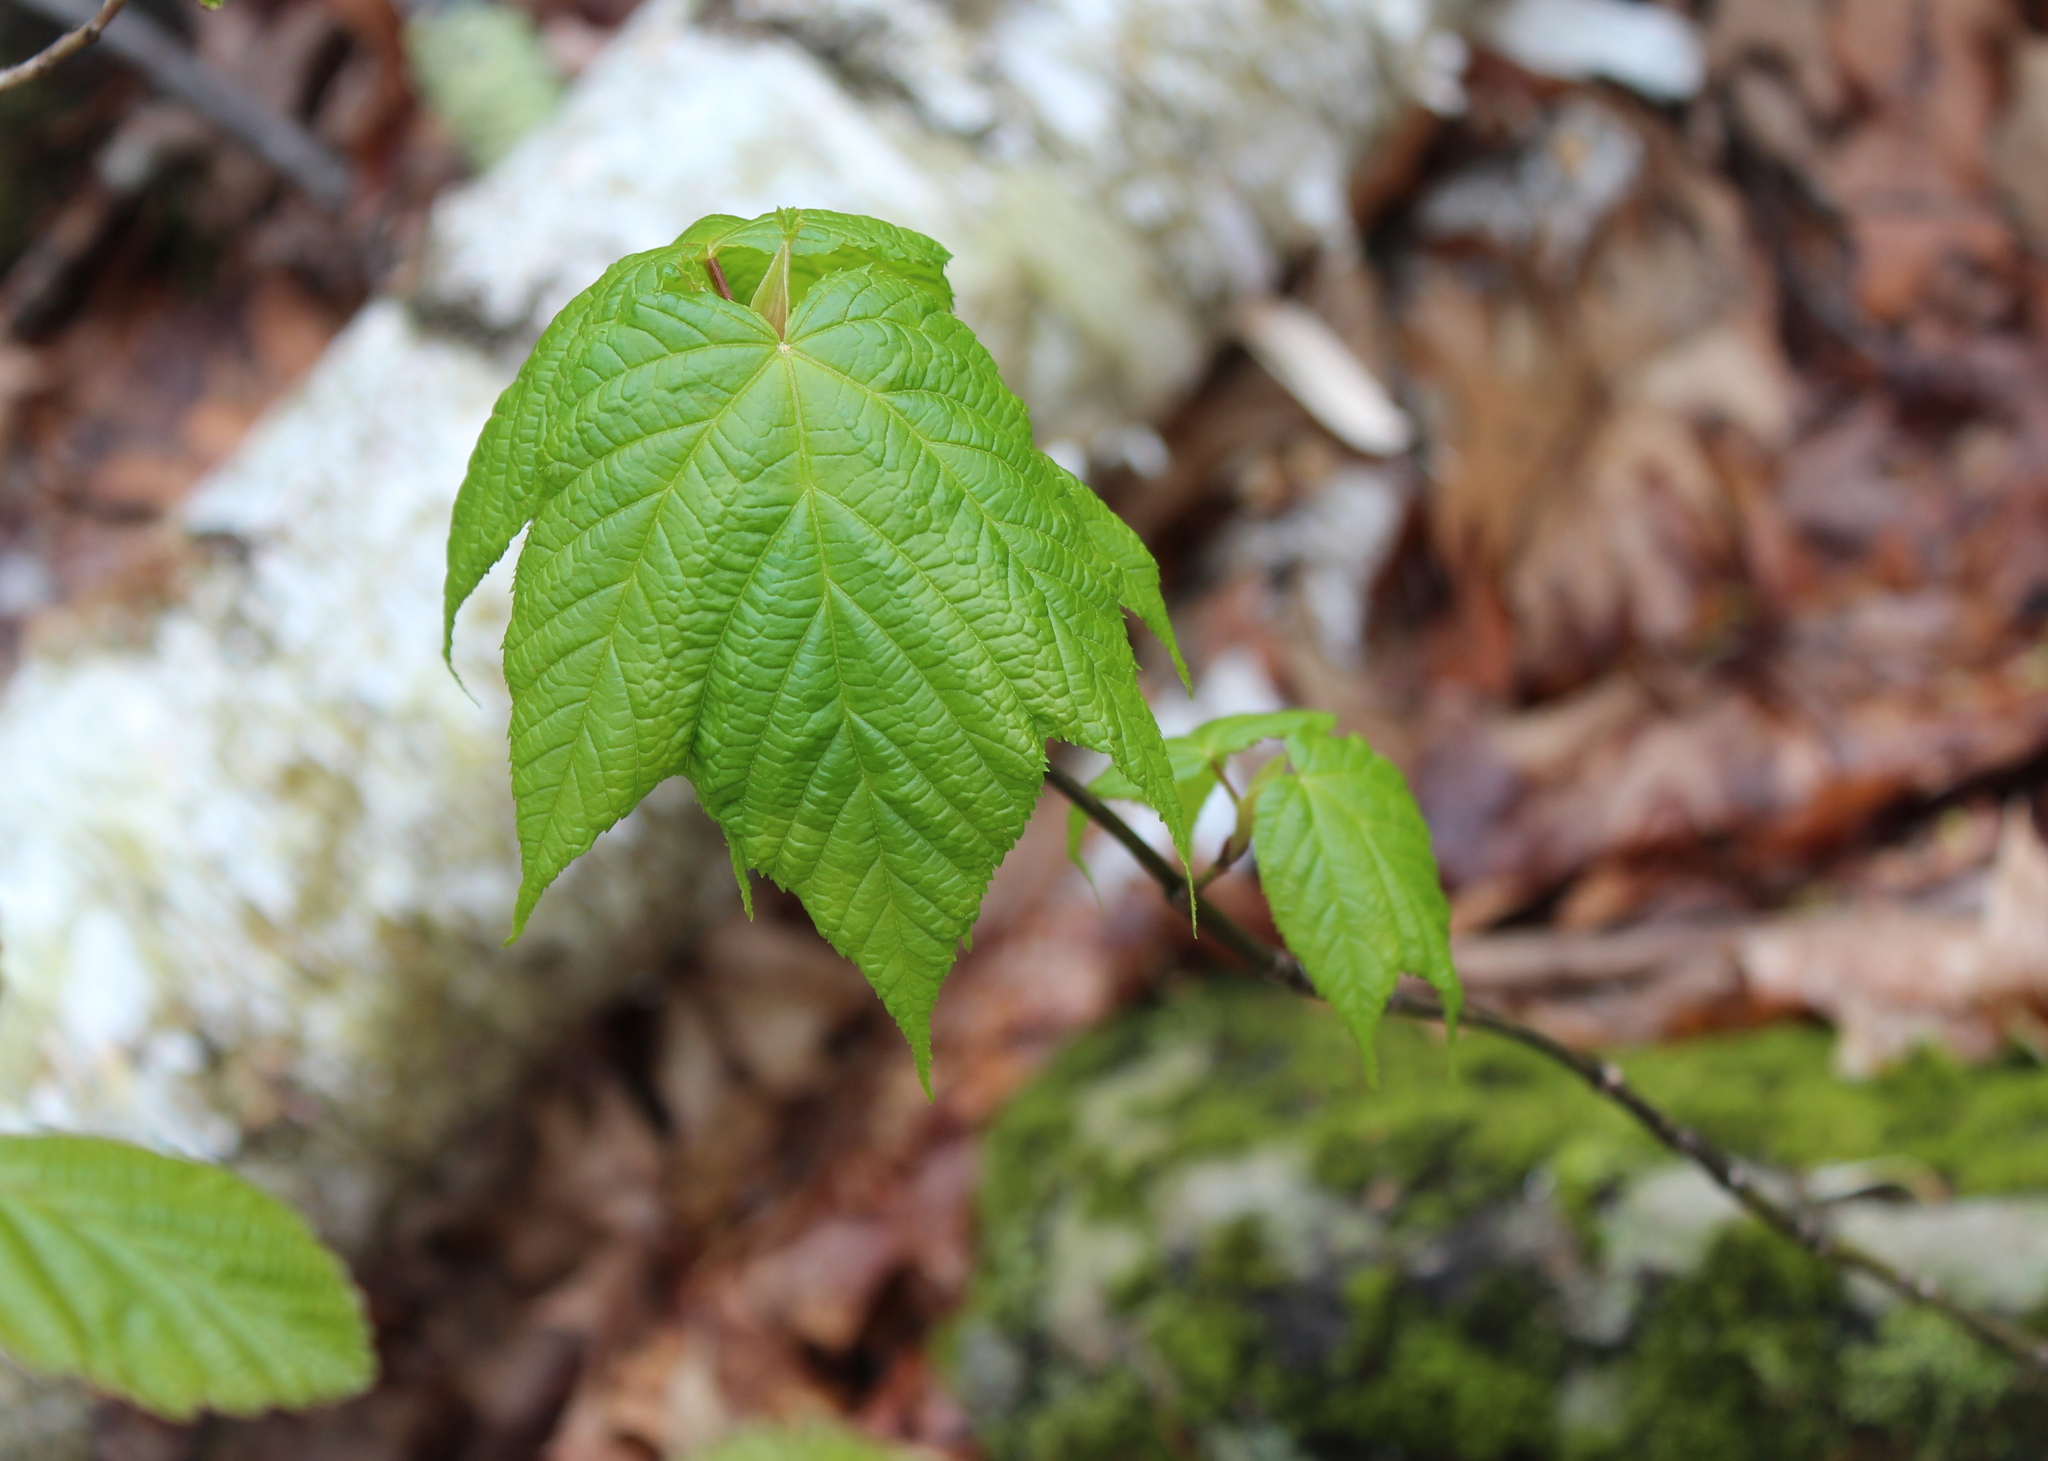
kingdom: Plantae
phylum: Tracheophyta
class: Magnoliopsida
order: Sapindales
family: Sapindaceae
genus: Acer
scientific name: Acer pensylvanicum
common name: Moosewood
